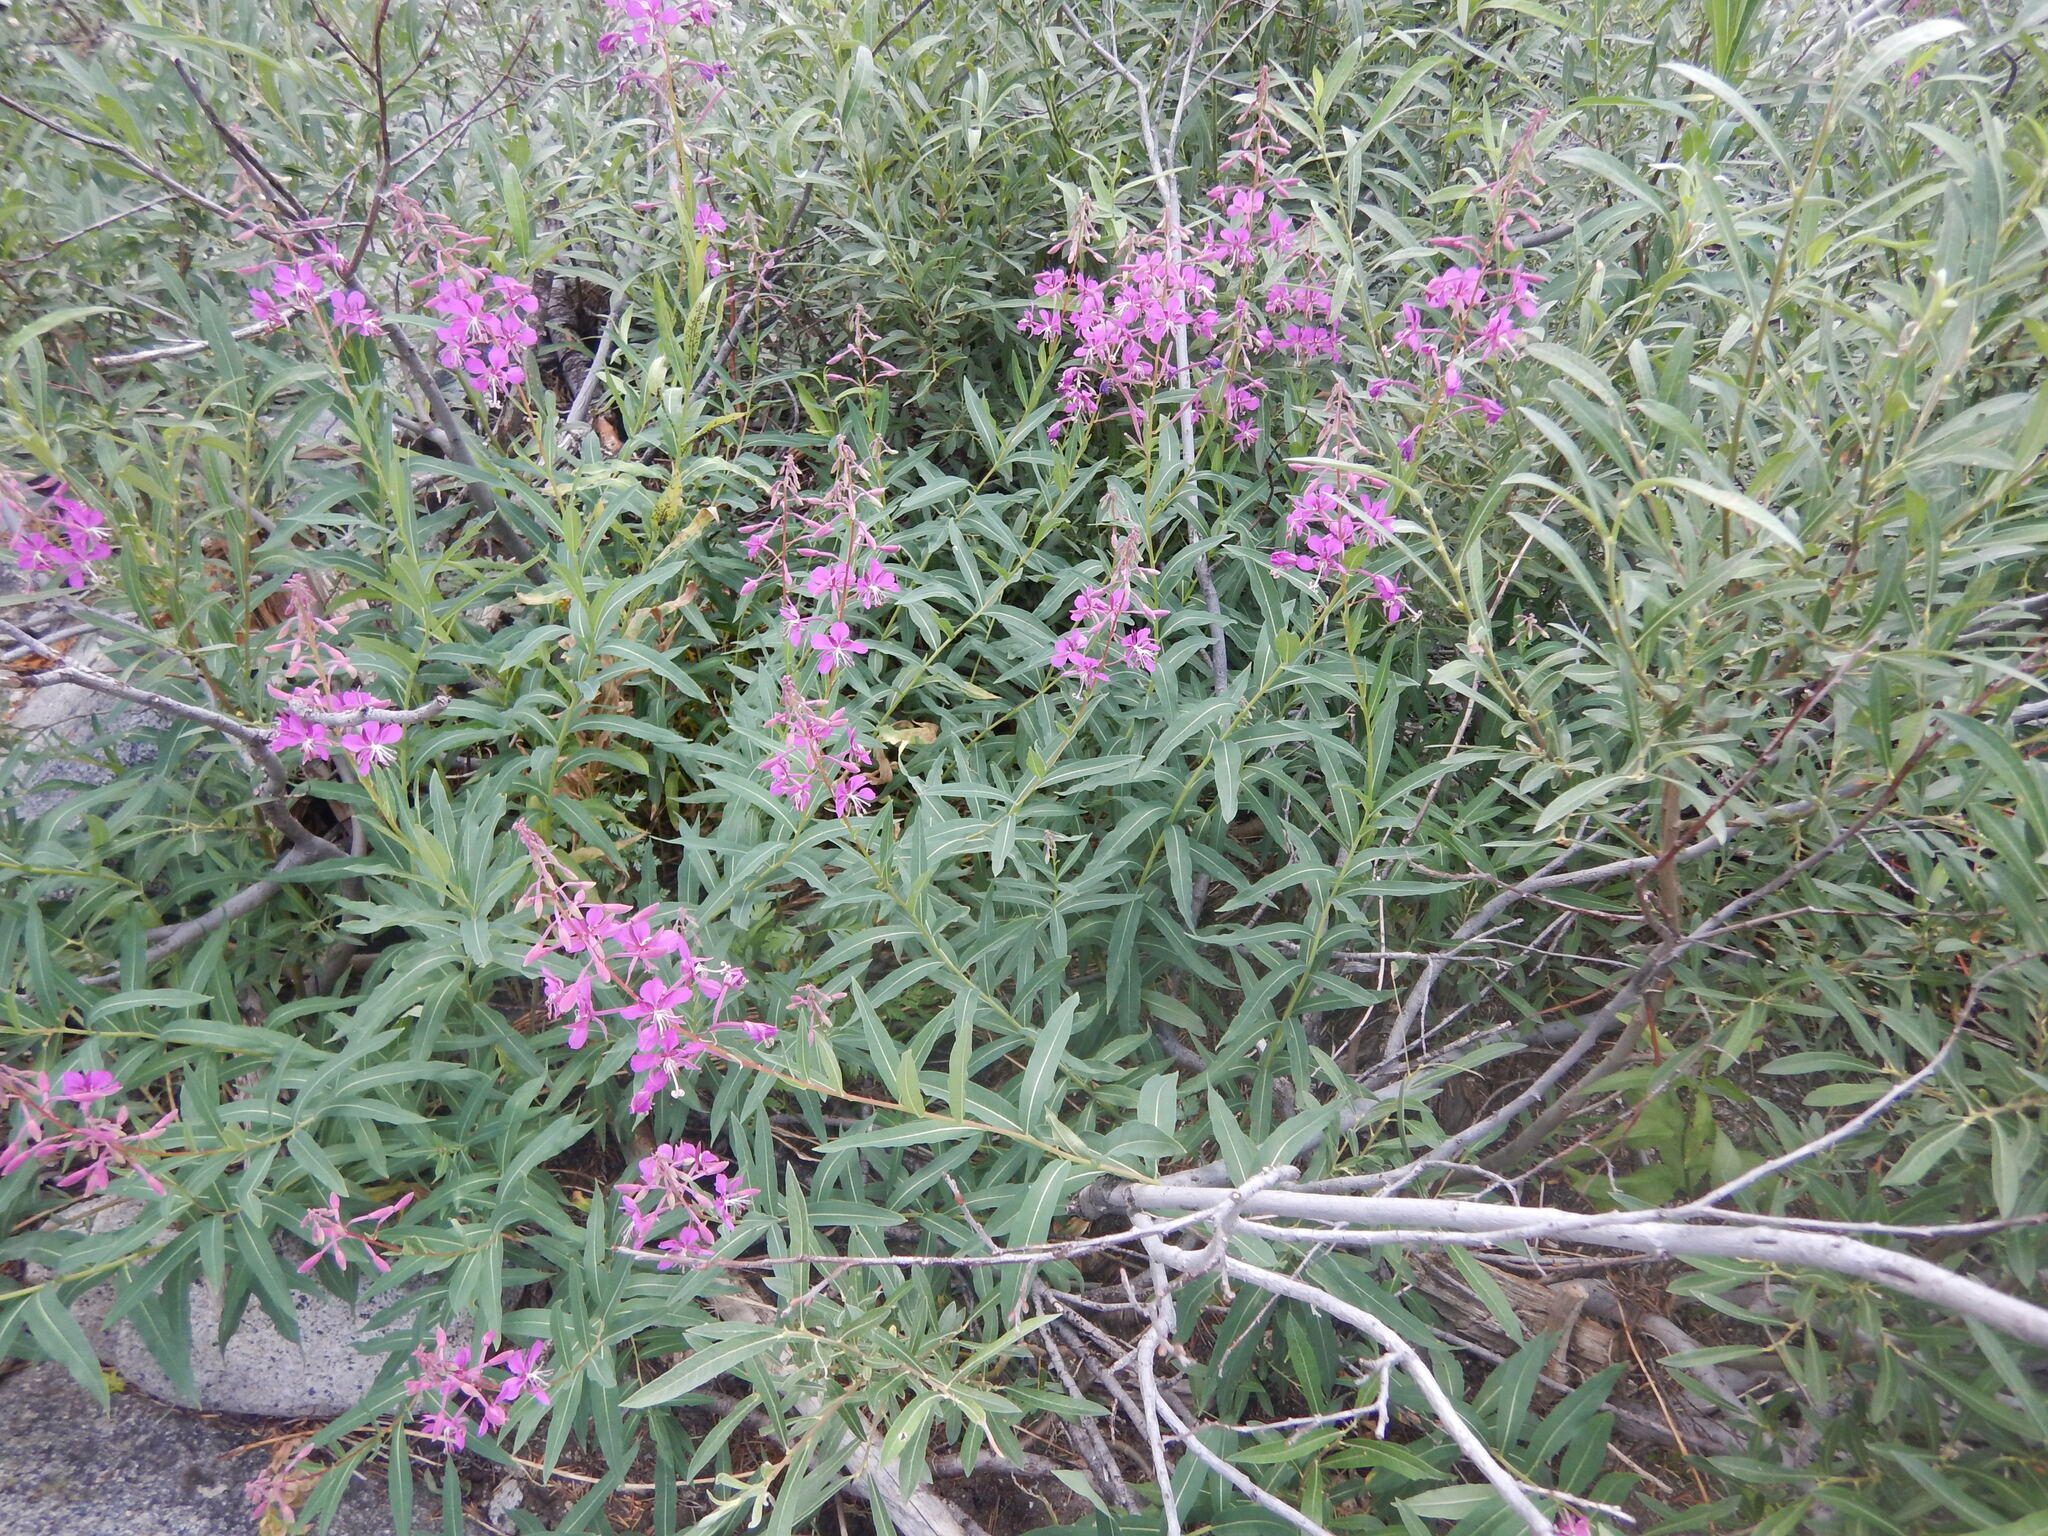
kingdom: Plantae
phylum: Tracheophyta
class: Magnoliopsida
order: Myrtales
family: Onagraceae
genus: Chamaenerion
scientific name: Chamaenerion angustifolium
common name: Fireweed
